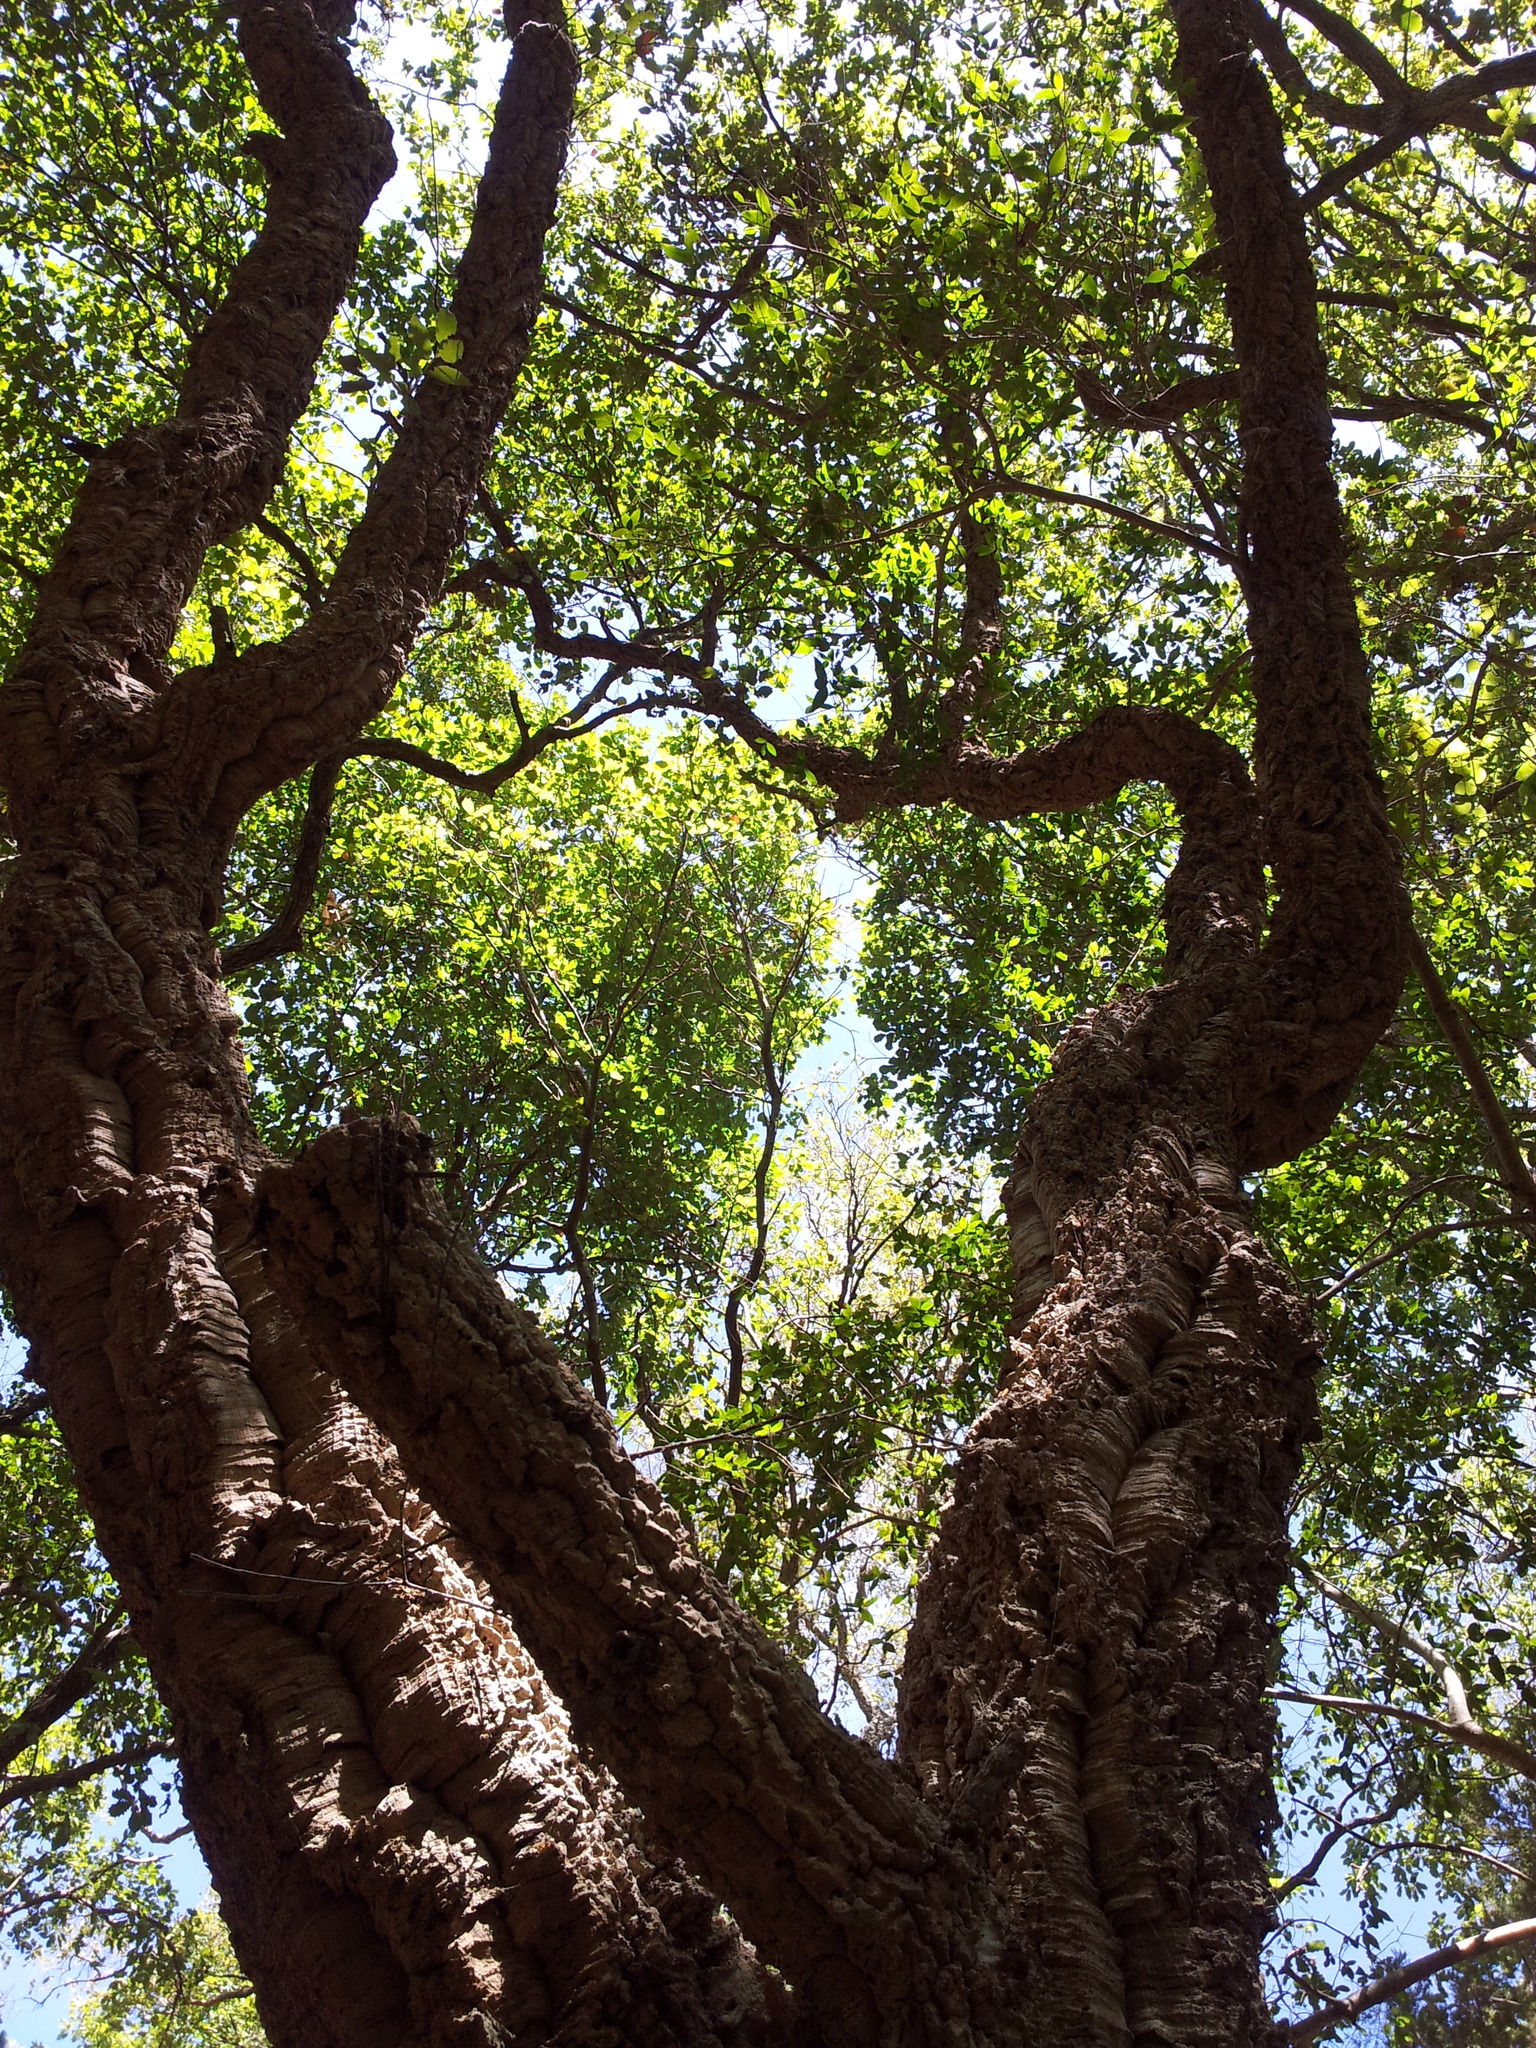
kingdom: Plantae
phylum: Tracheophyta
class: Magnoliopsida
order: Fagales
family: Fagaceae
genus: Quercus
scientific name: Quercus suber
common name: Cork oak
